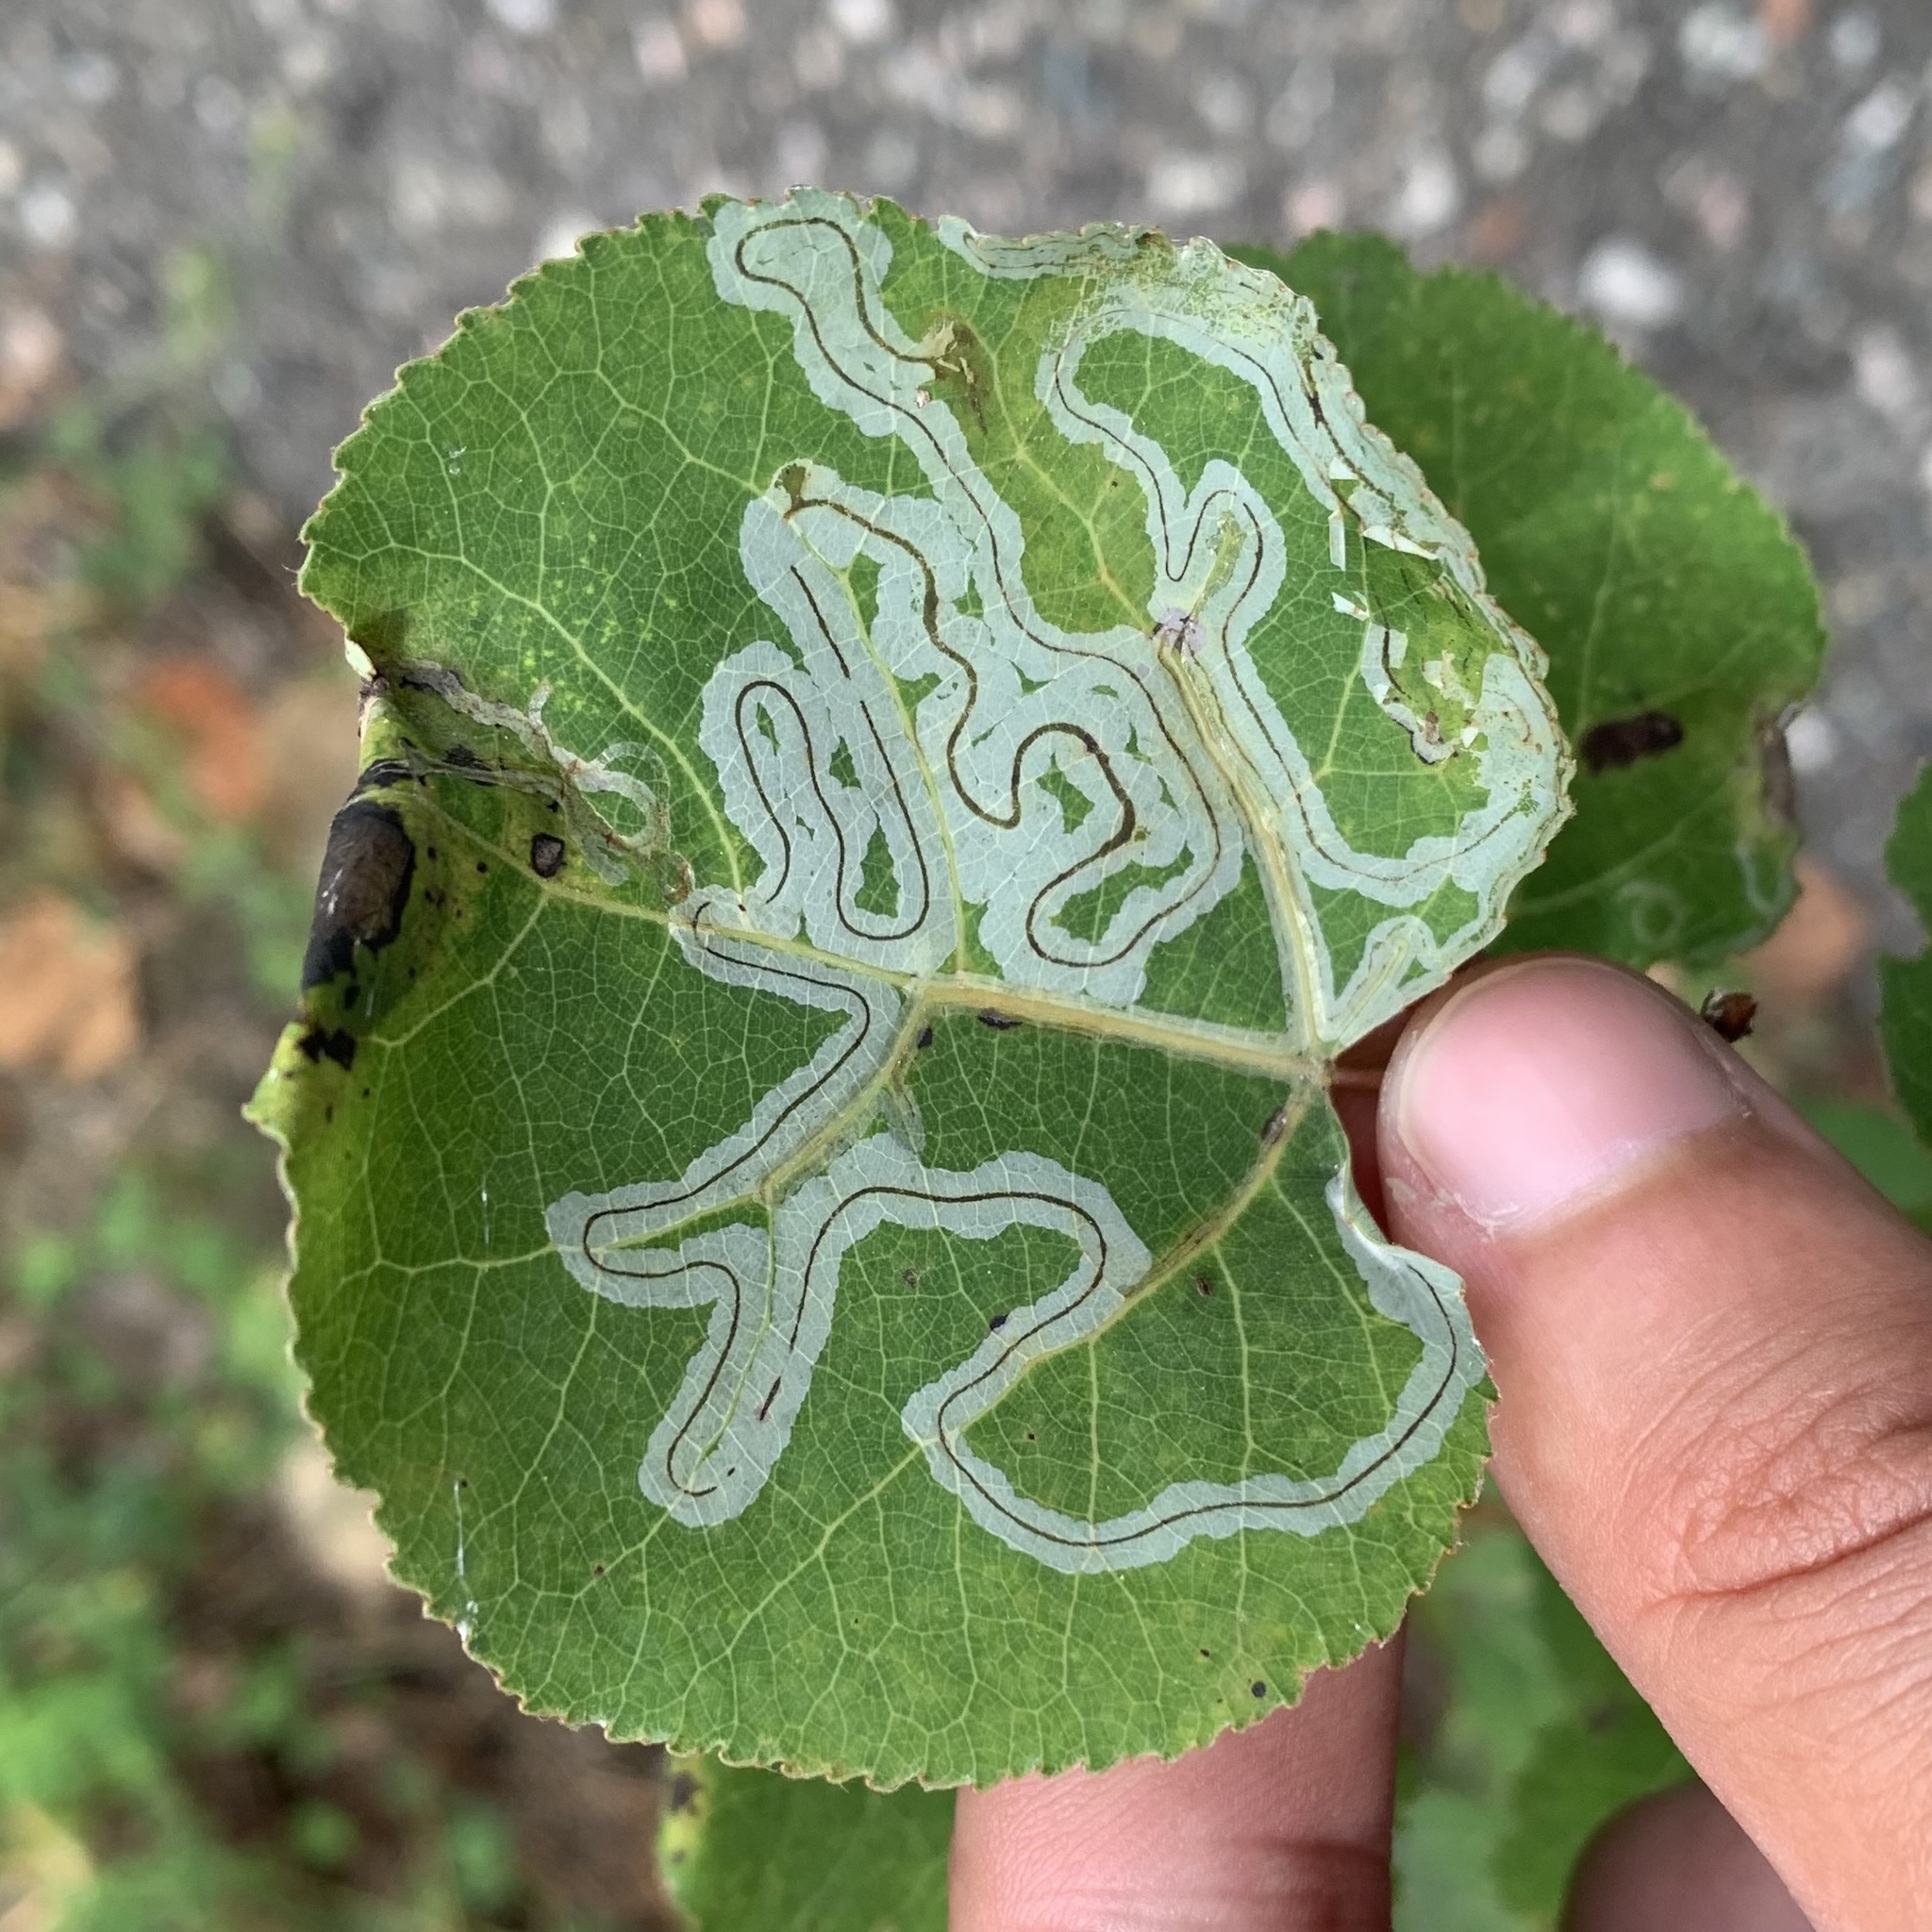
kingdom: Animalia
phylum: Arthropoda
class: Insecta
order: Lepidoptera
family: Gracillariidae
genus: Phyllocnistis
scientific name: Phyllocnistis populiella
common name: Aspen serpentine leafminer moth
